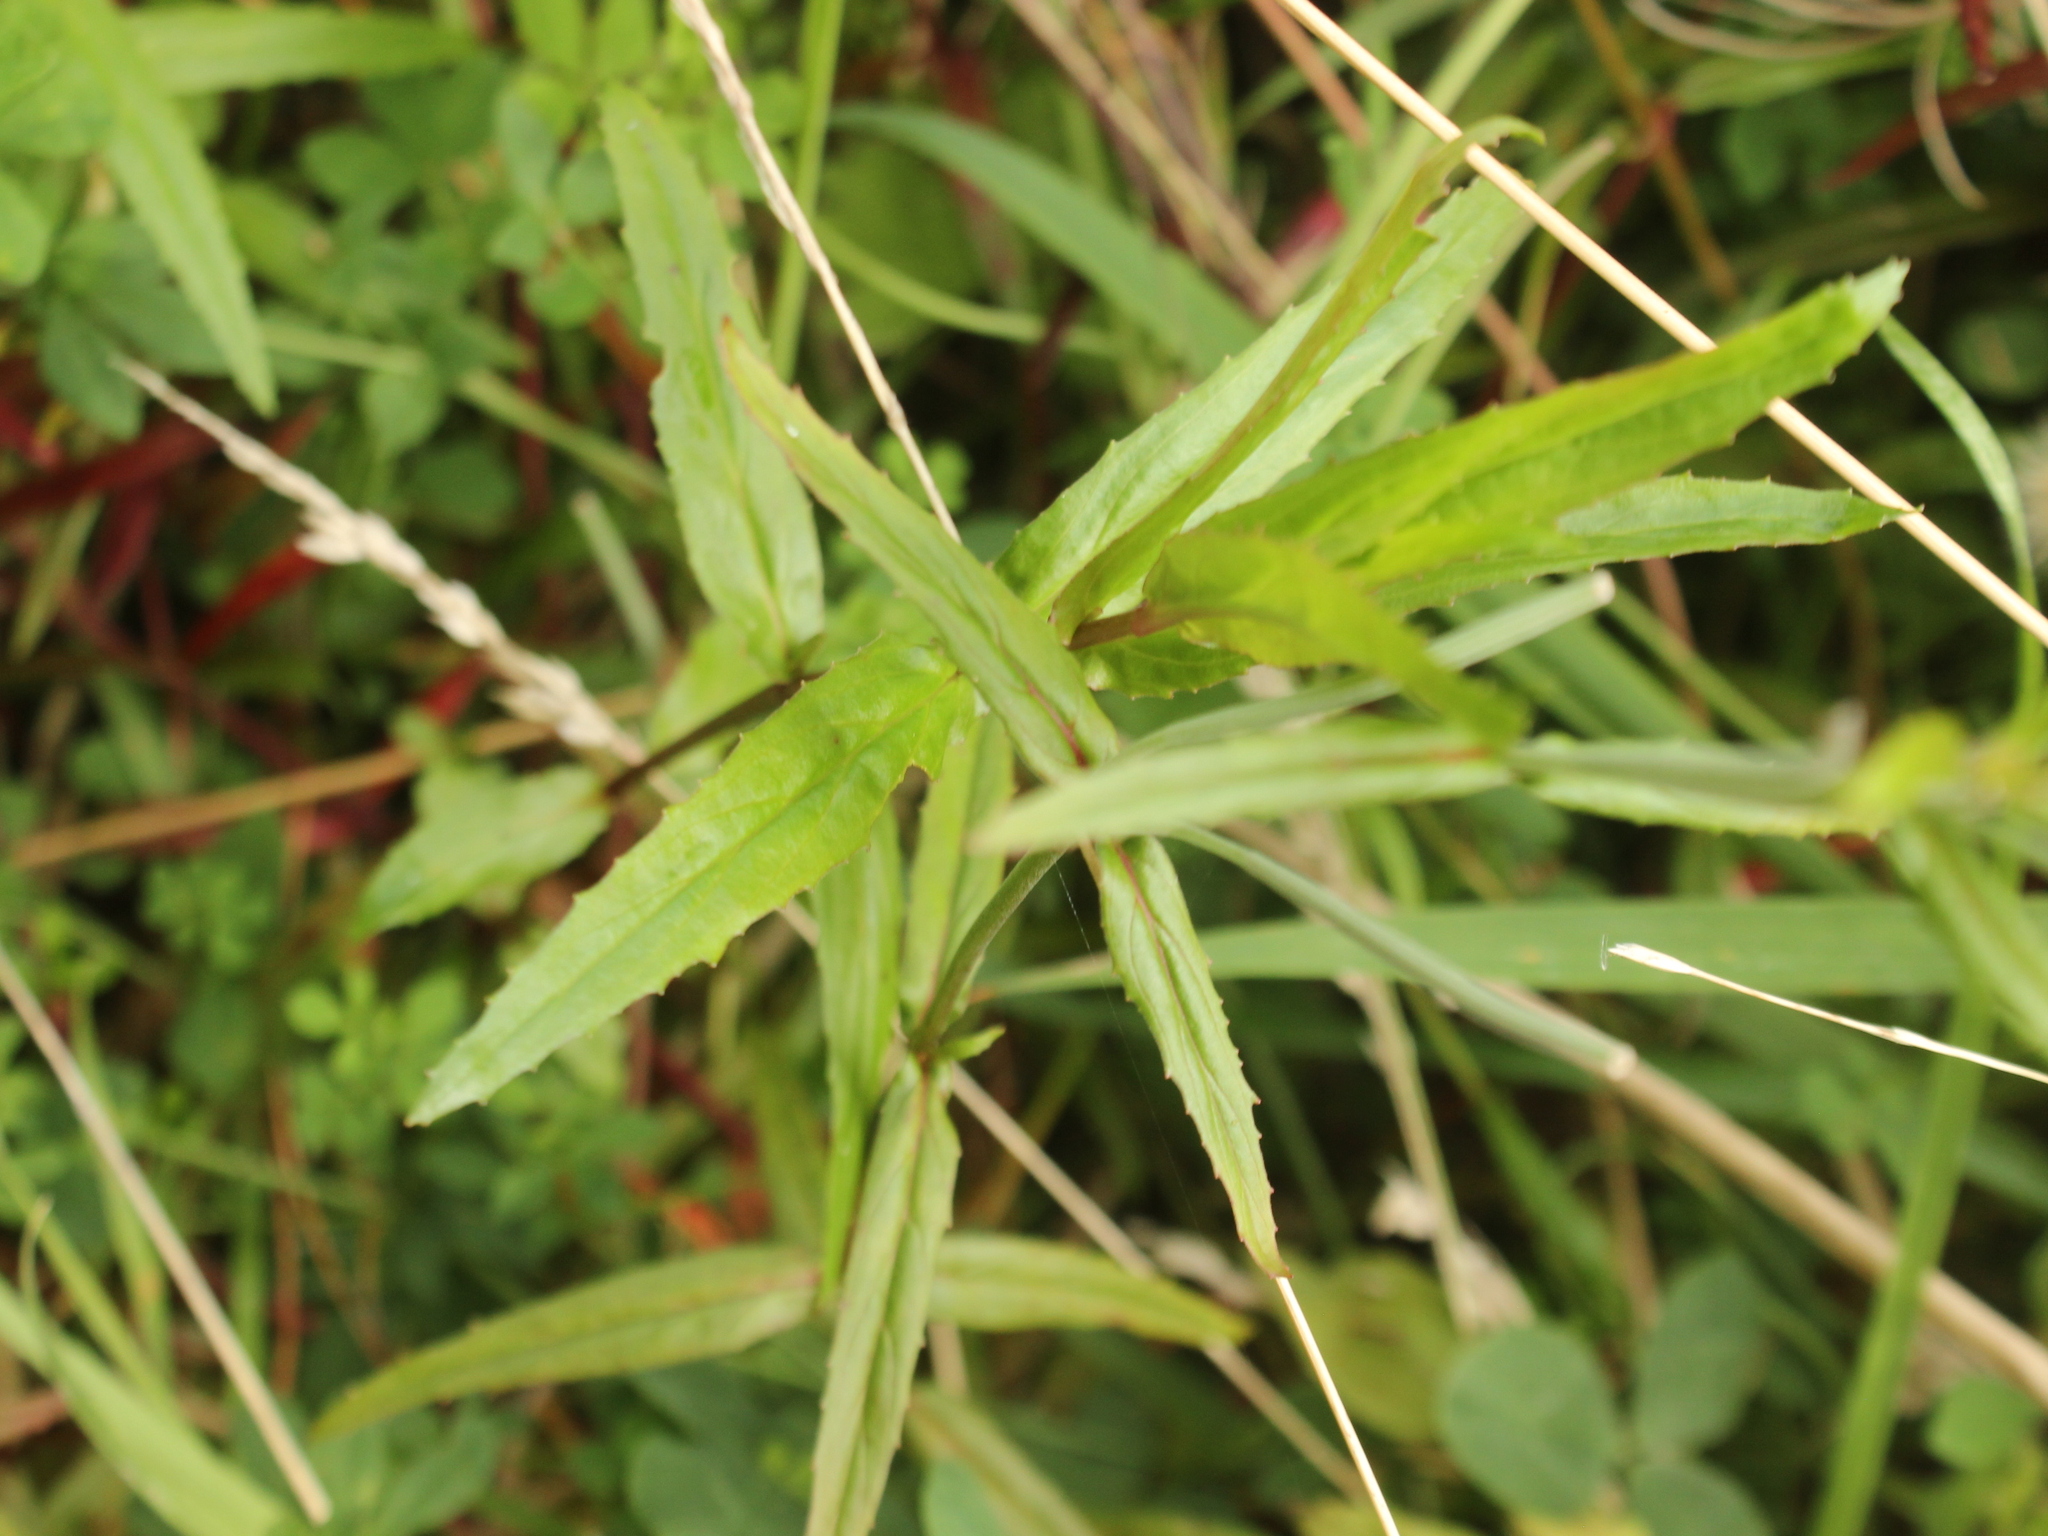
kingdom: Plantae
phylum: Tracheophyta
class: Magnoliopsida
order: Myrtales
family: Onagraceae
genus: Epilobium
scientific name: Epilobium pallidiflorum
